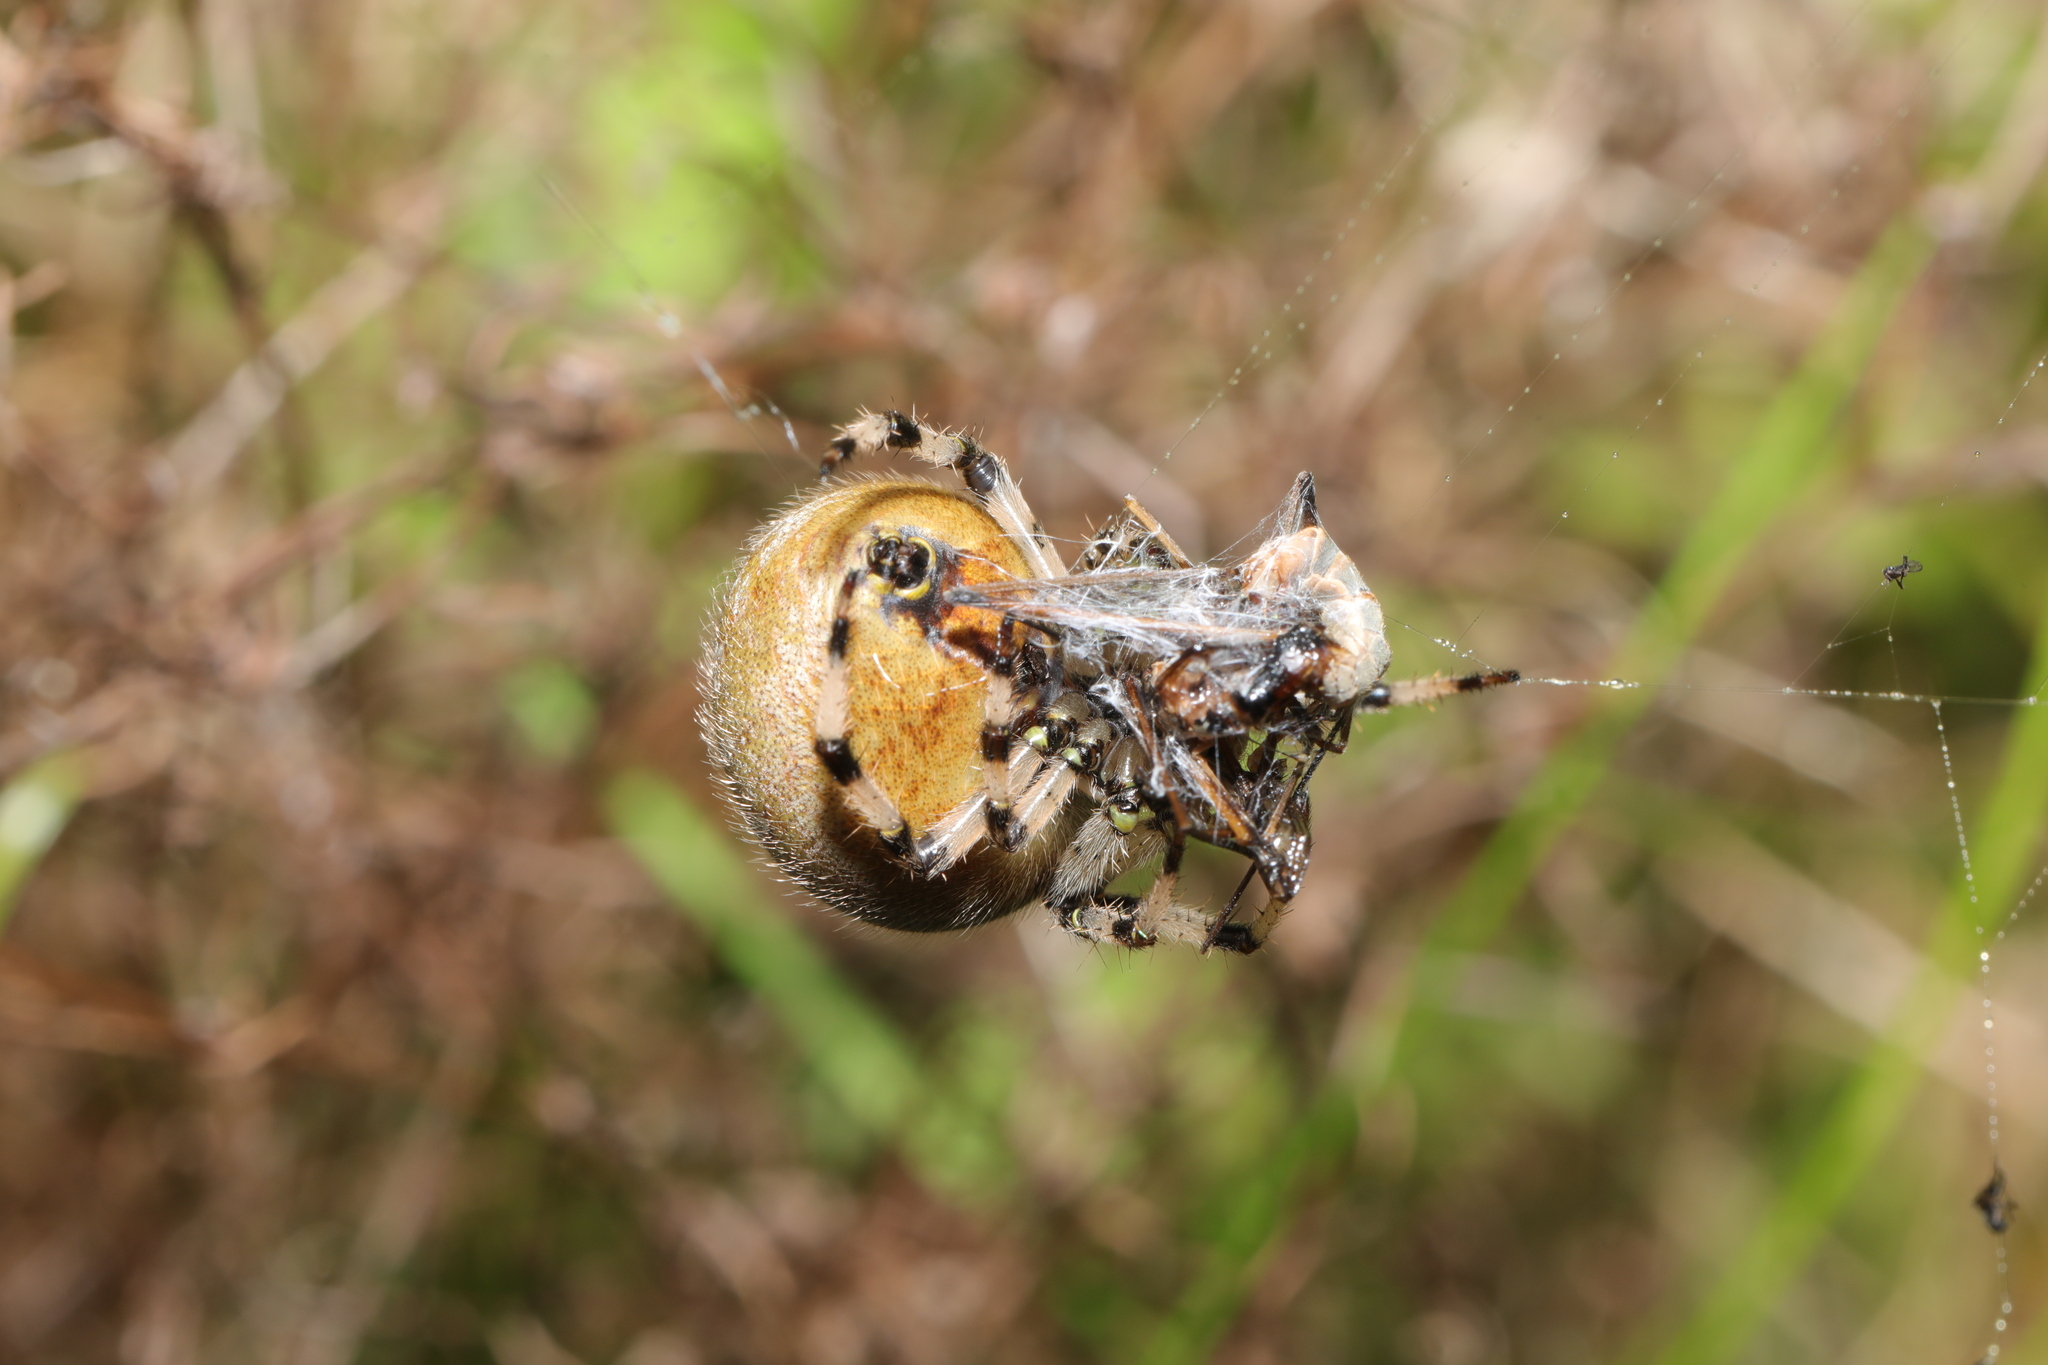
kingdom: Animalia
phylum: Arthropoda
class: Arachnida
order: Araneae
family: Araneidae
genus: Araneus
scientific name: Araneus quadratus
